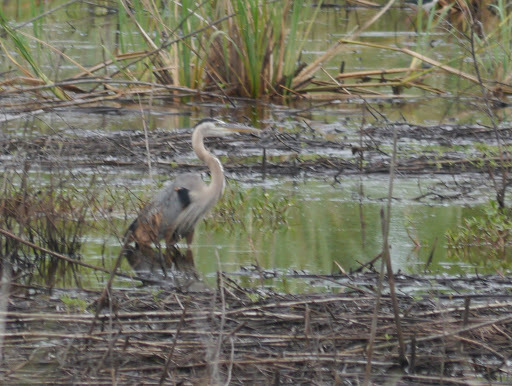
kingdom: Animalia
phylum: Chordata
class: Aves
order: Pelecaniformes
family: Ardeidae
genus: Ardea
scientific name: Ardea herodias
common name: Great blue heron
